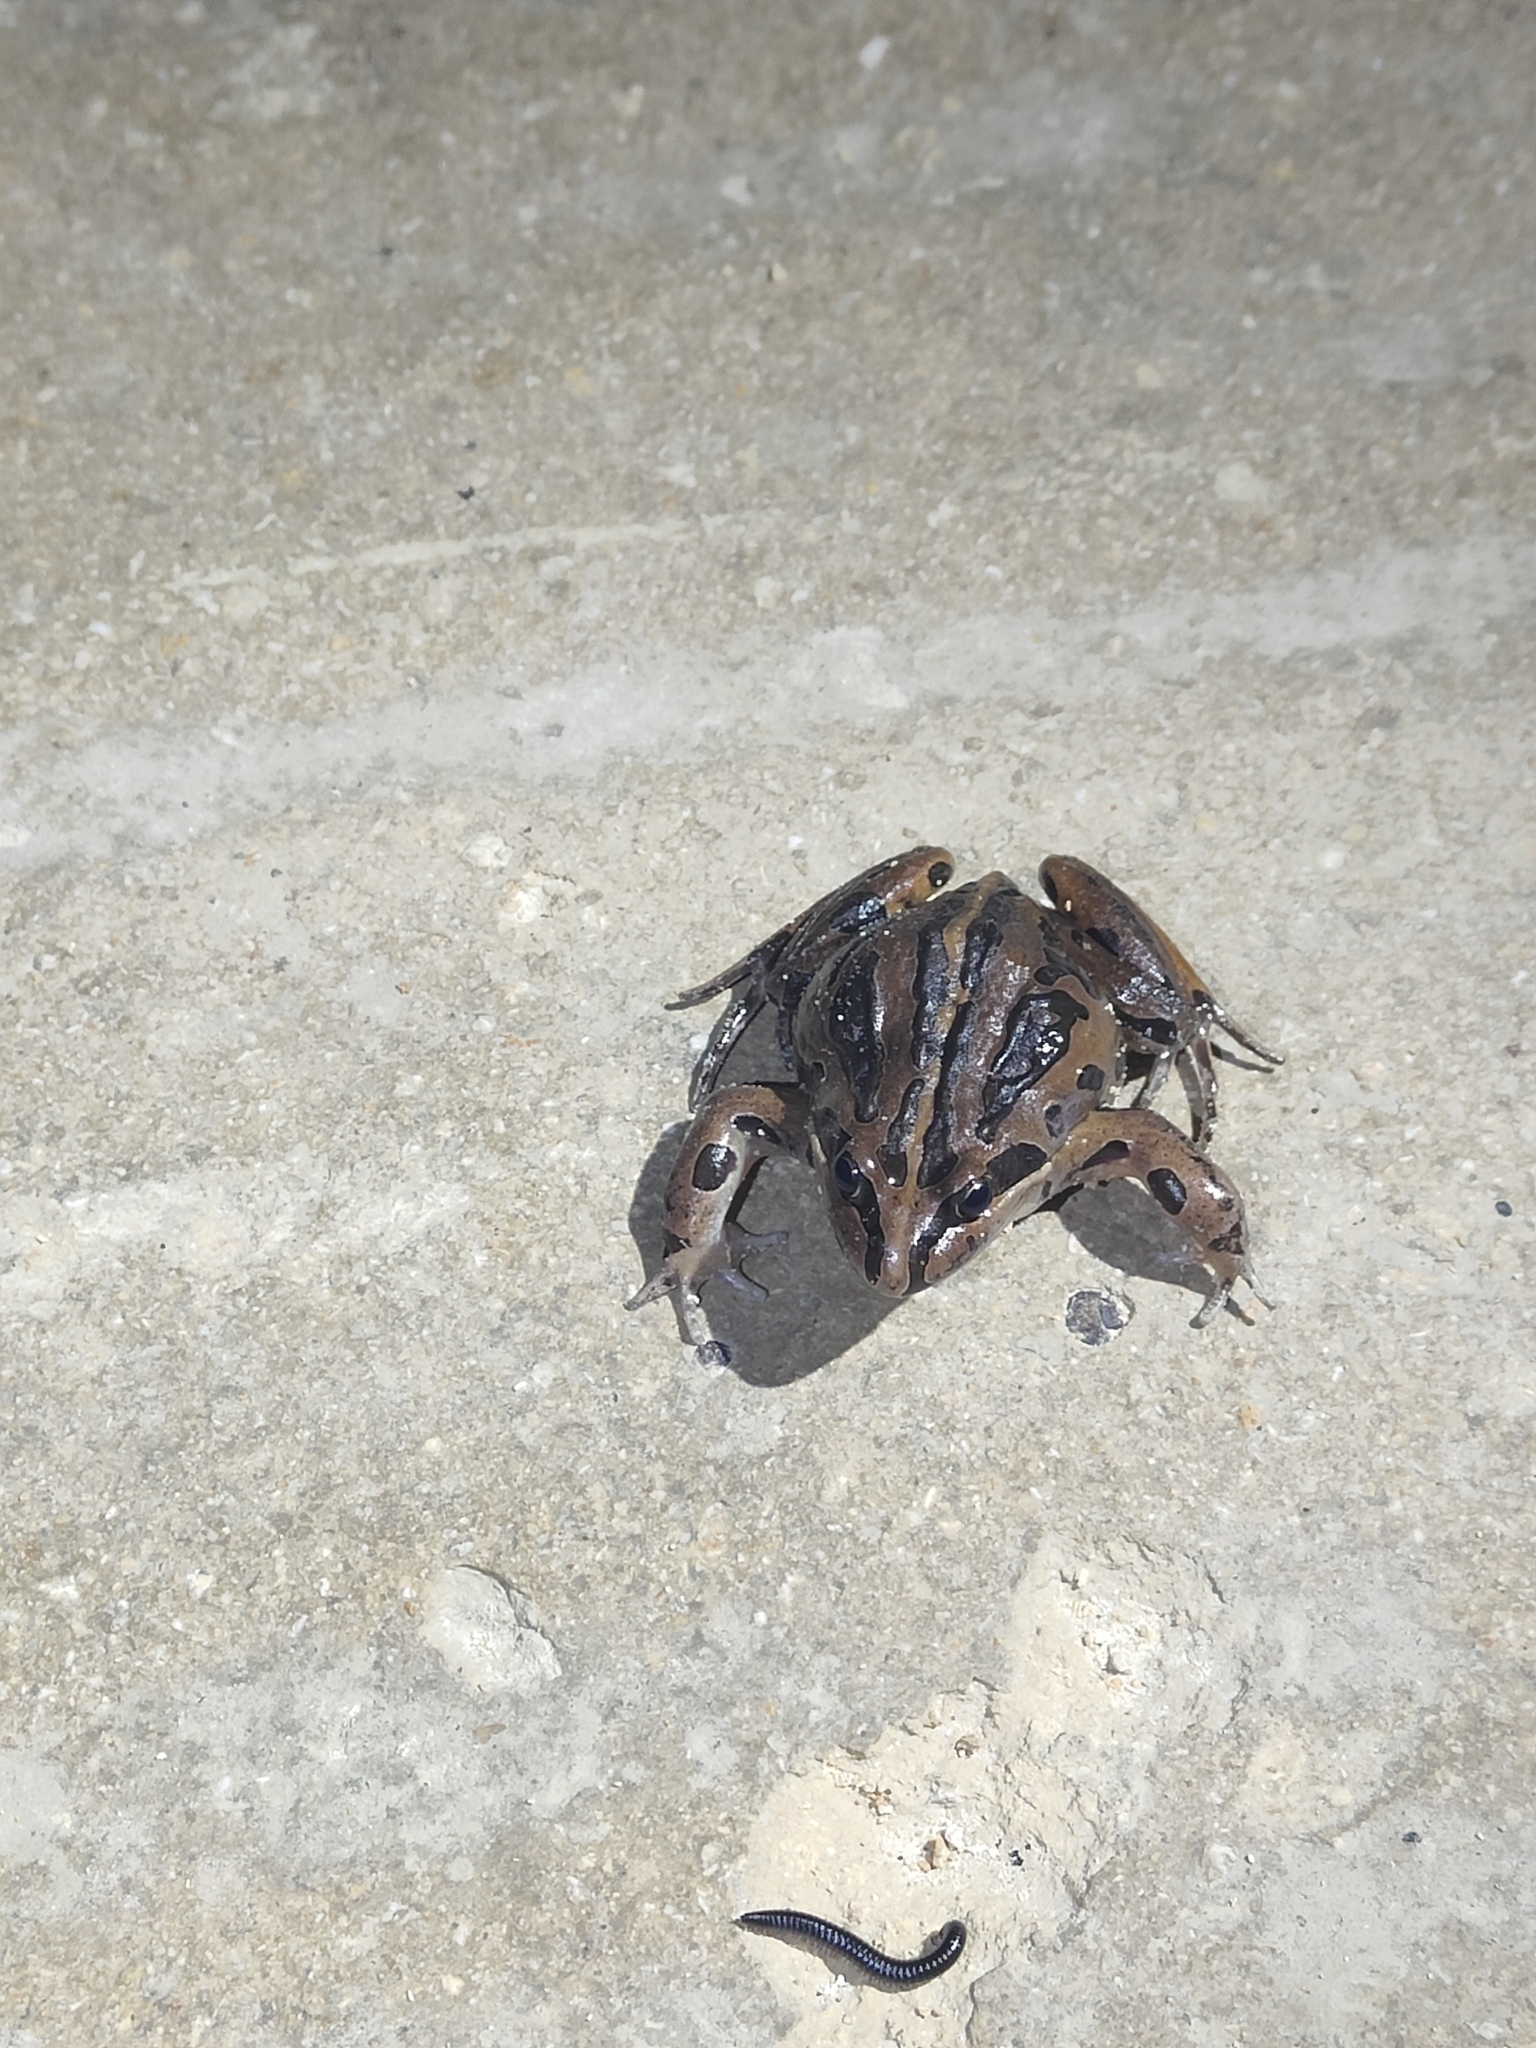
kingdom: Animalia
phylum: Chordata
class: Amphibia
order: Anura
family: Limnodynastidae
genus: Limnodynastes
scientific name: Limnodynastes peronii
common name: Brown frog
